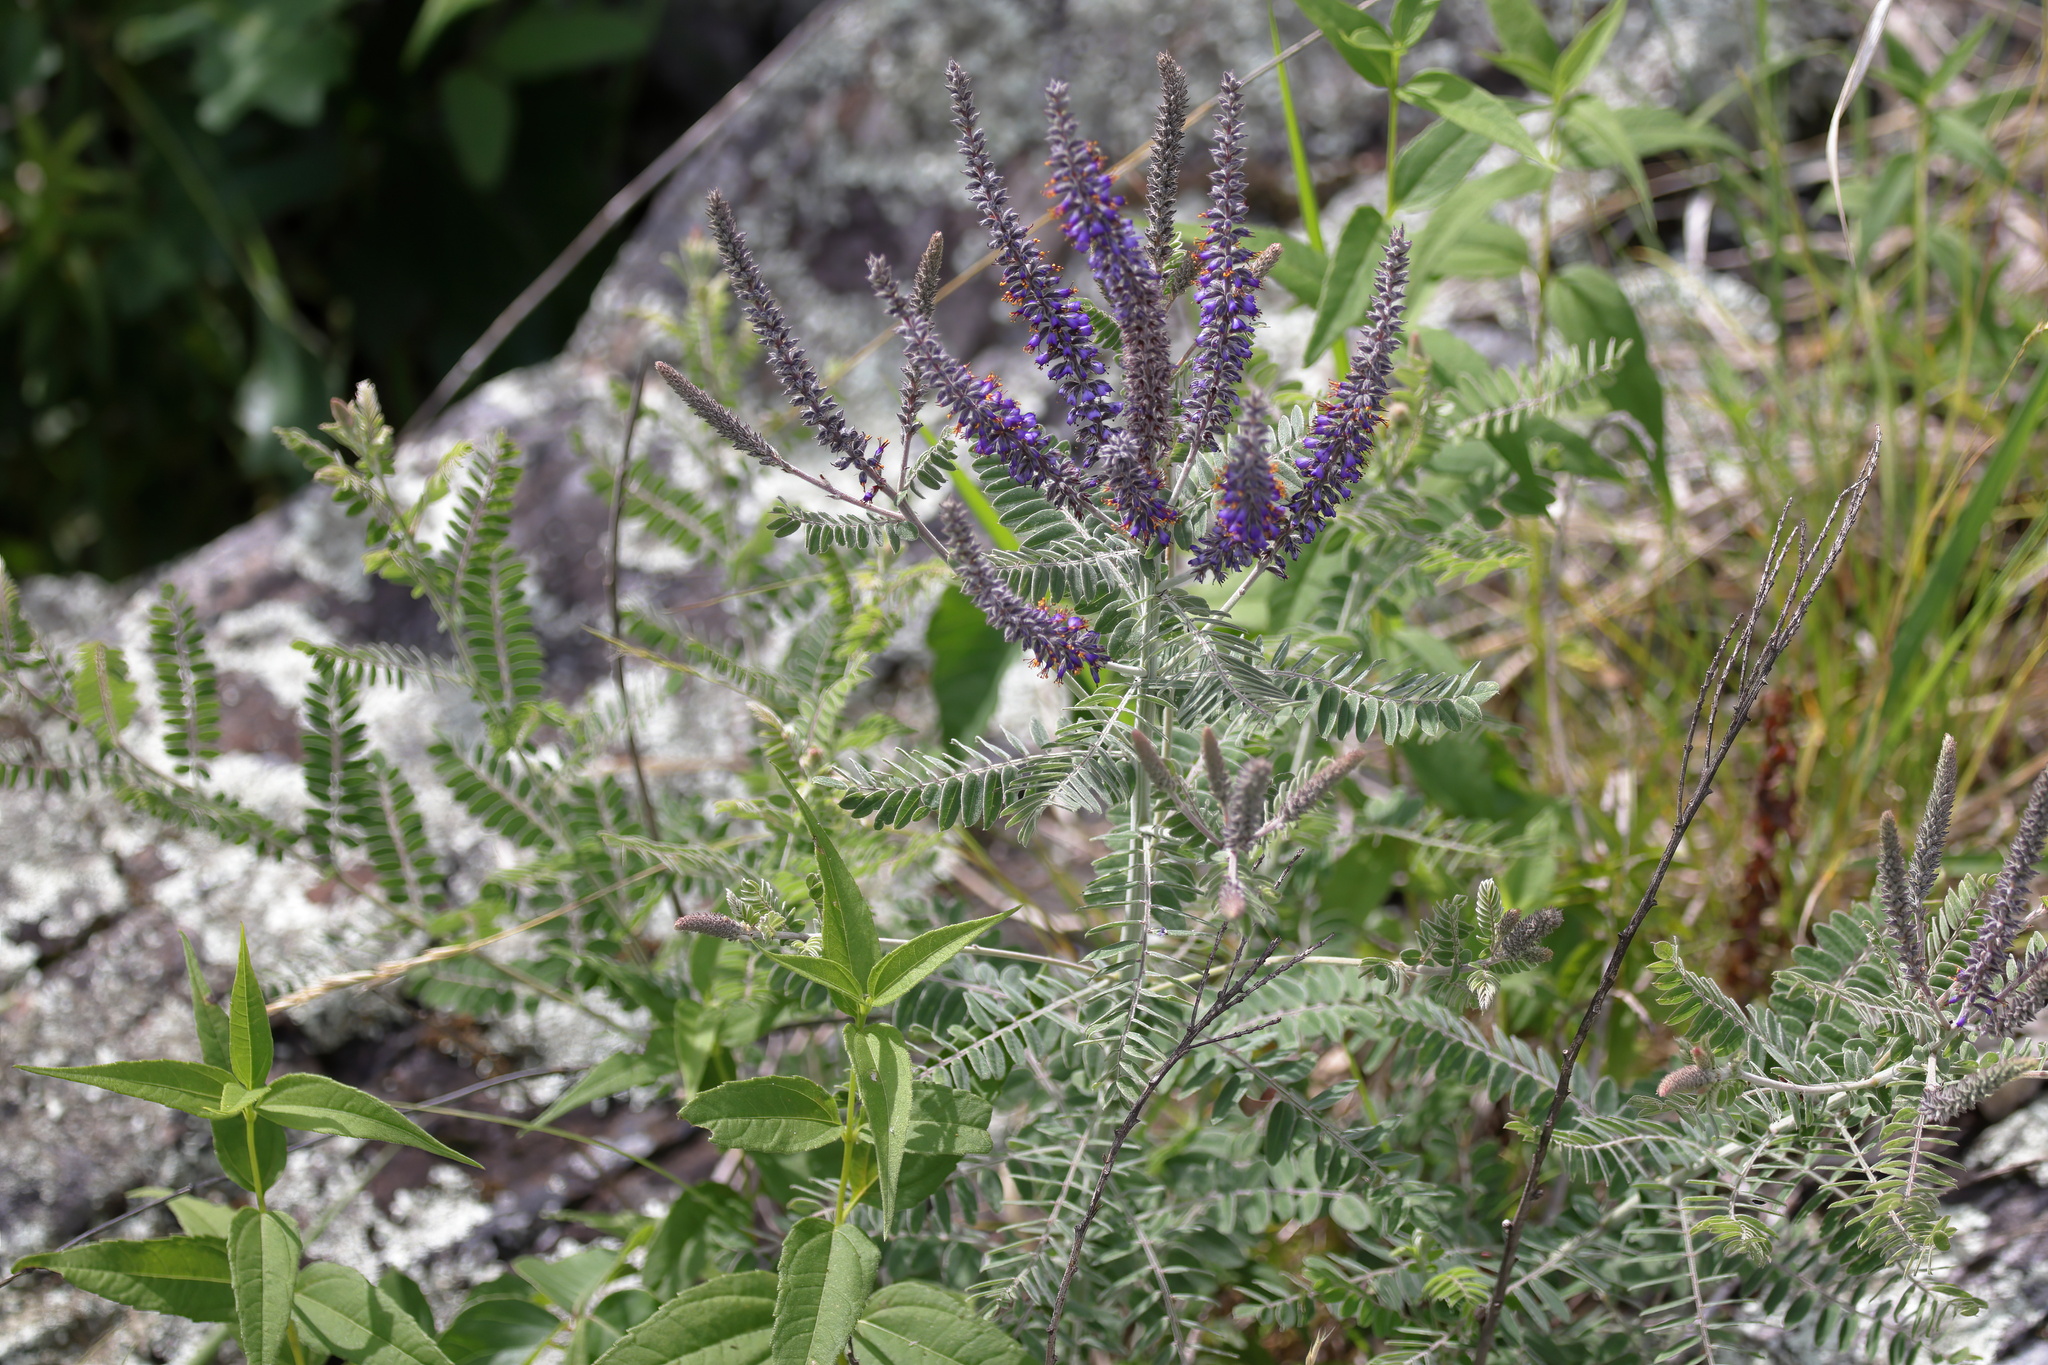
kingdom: Plantae
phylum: Tracheophyta
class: Magnoliopsida
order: Fabales
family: Fabaceae
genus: Amorpha
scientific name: Amorpha canescens
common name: Leadplant
